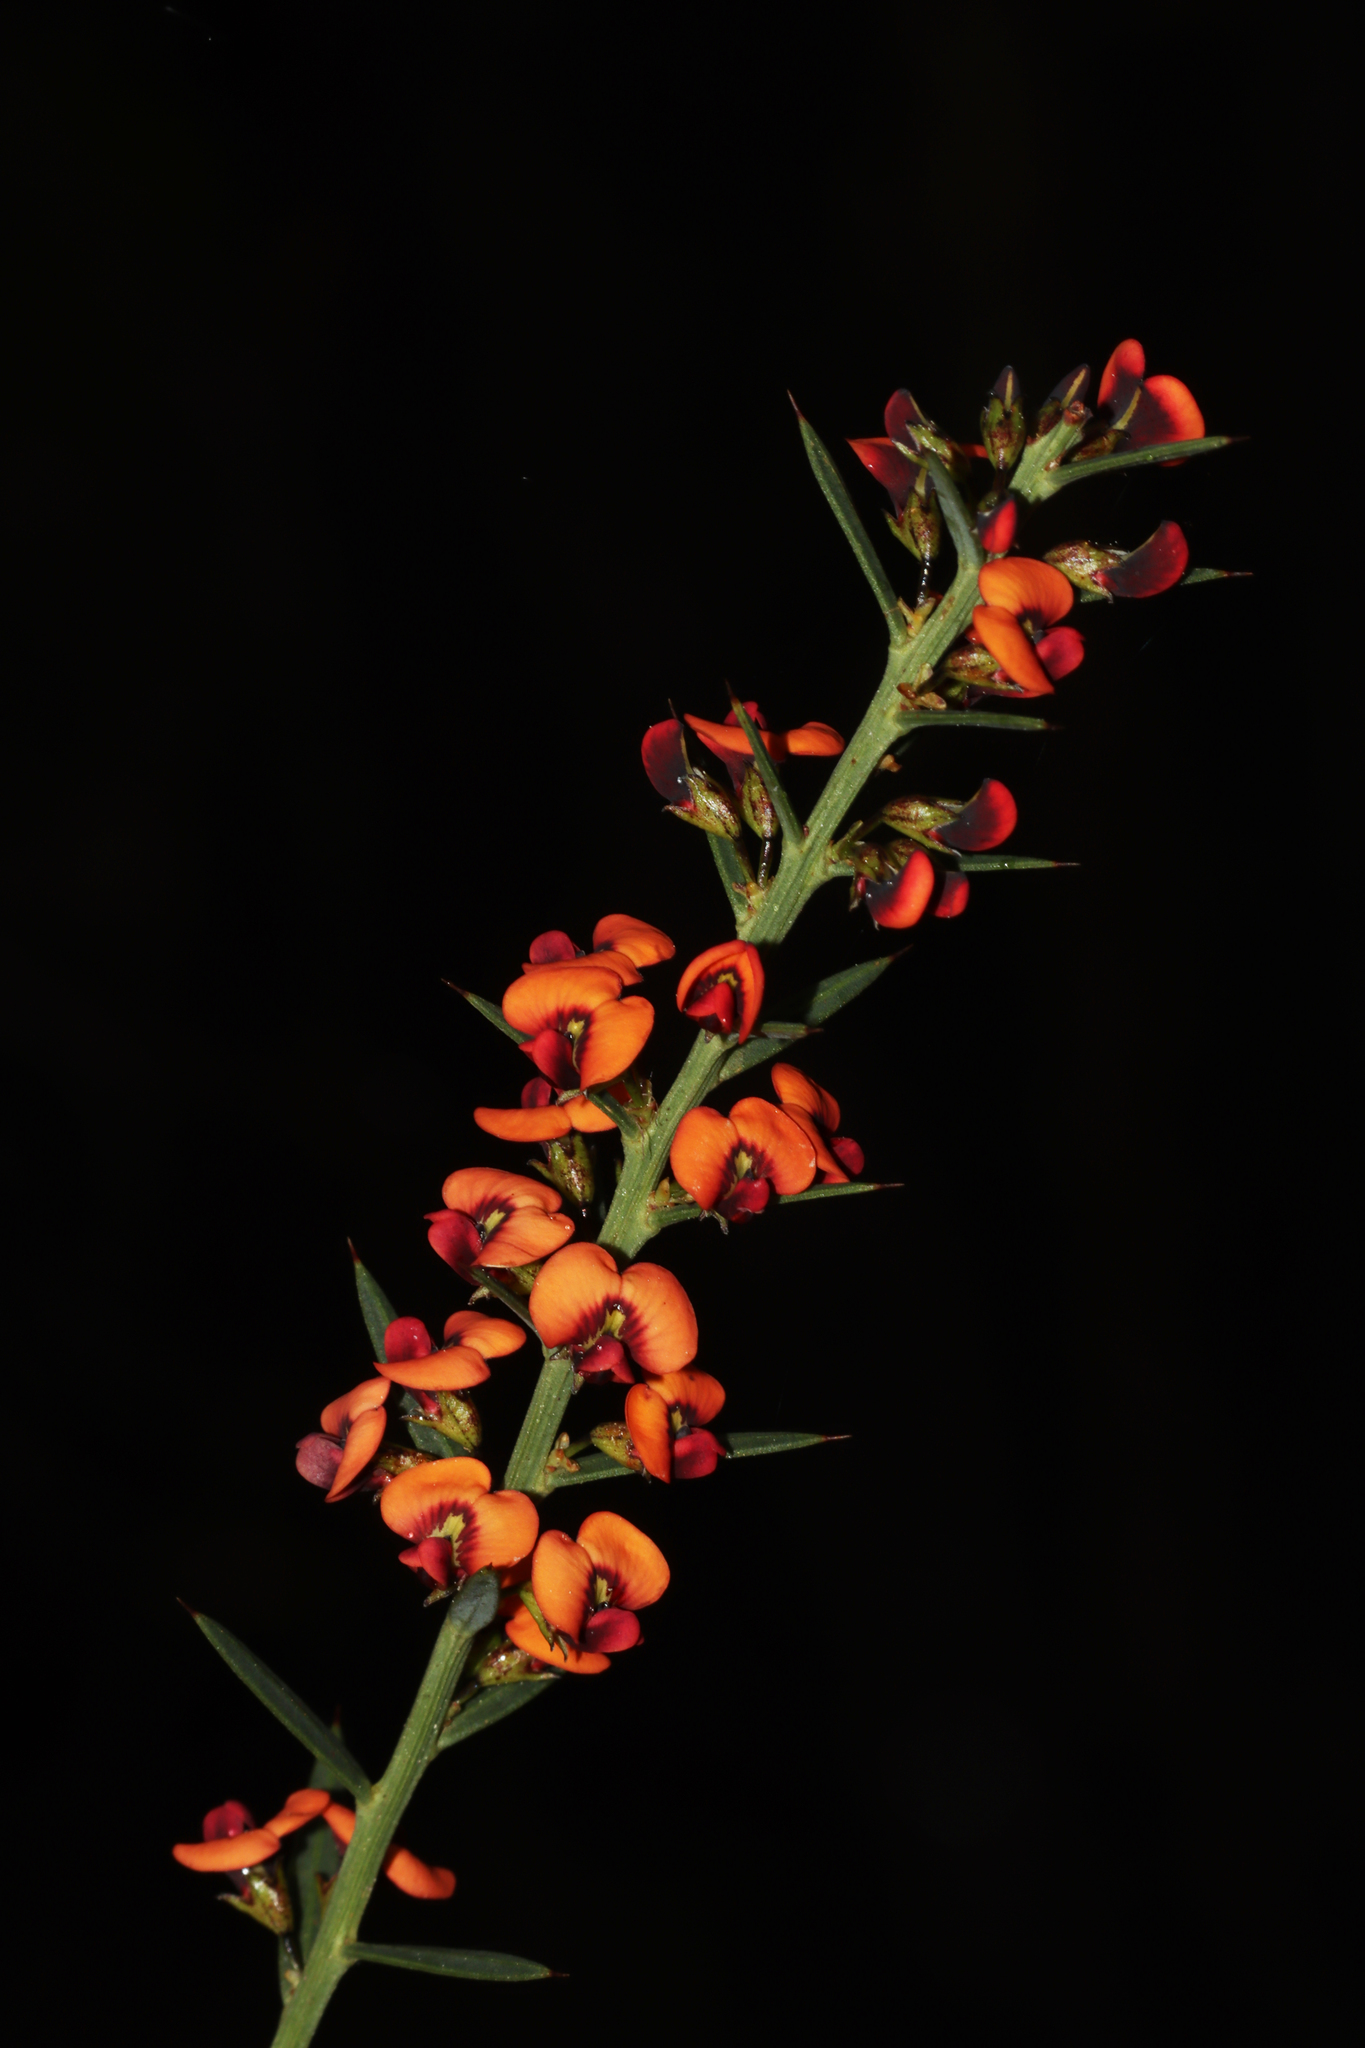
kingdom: Plantae
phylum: Tracheophyta
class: Magnoliopsida
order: Fabales
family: Fabaceae
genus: Daviesia
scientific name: Daviesia ulicifolia
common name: Gorse bitter-pea
